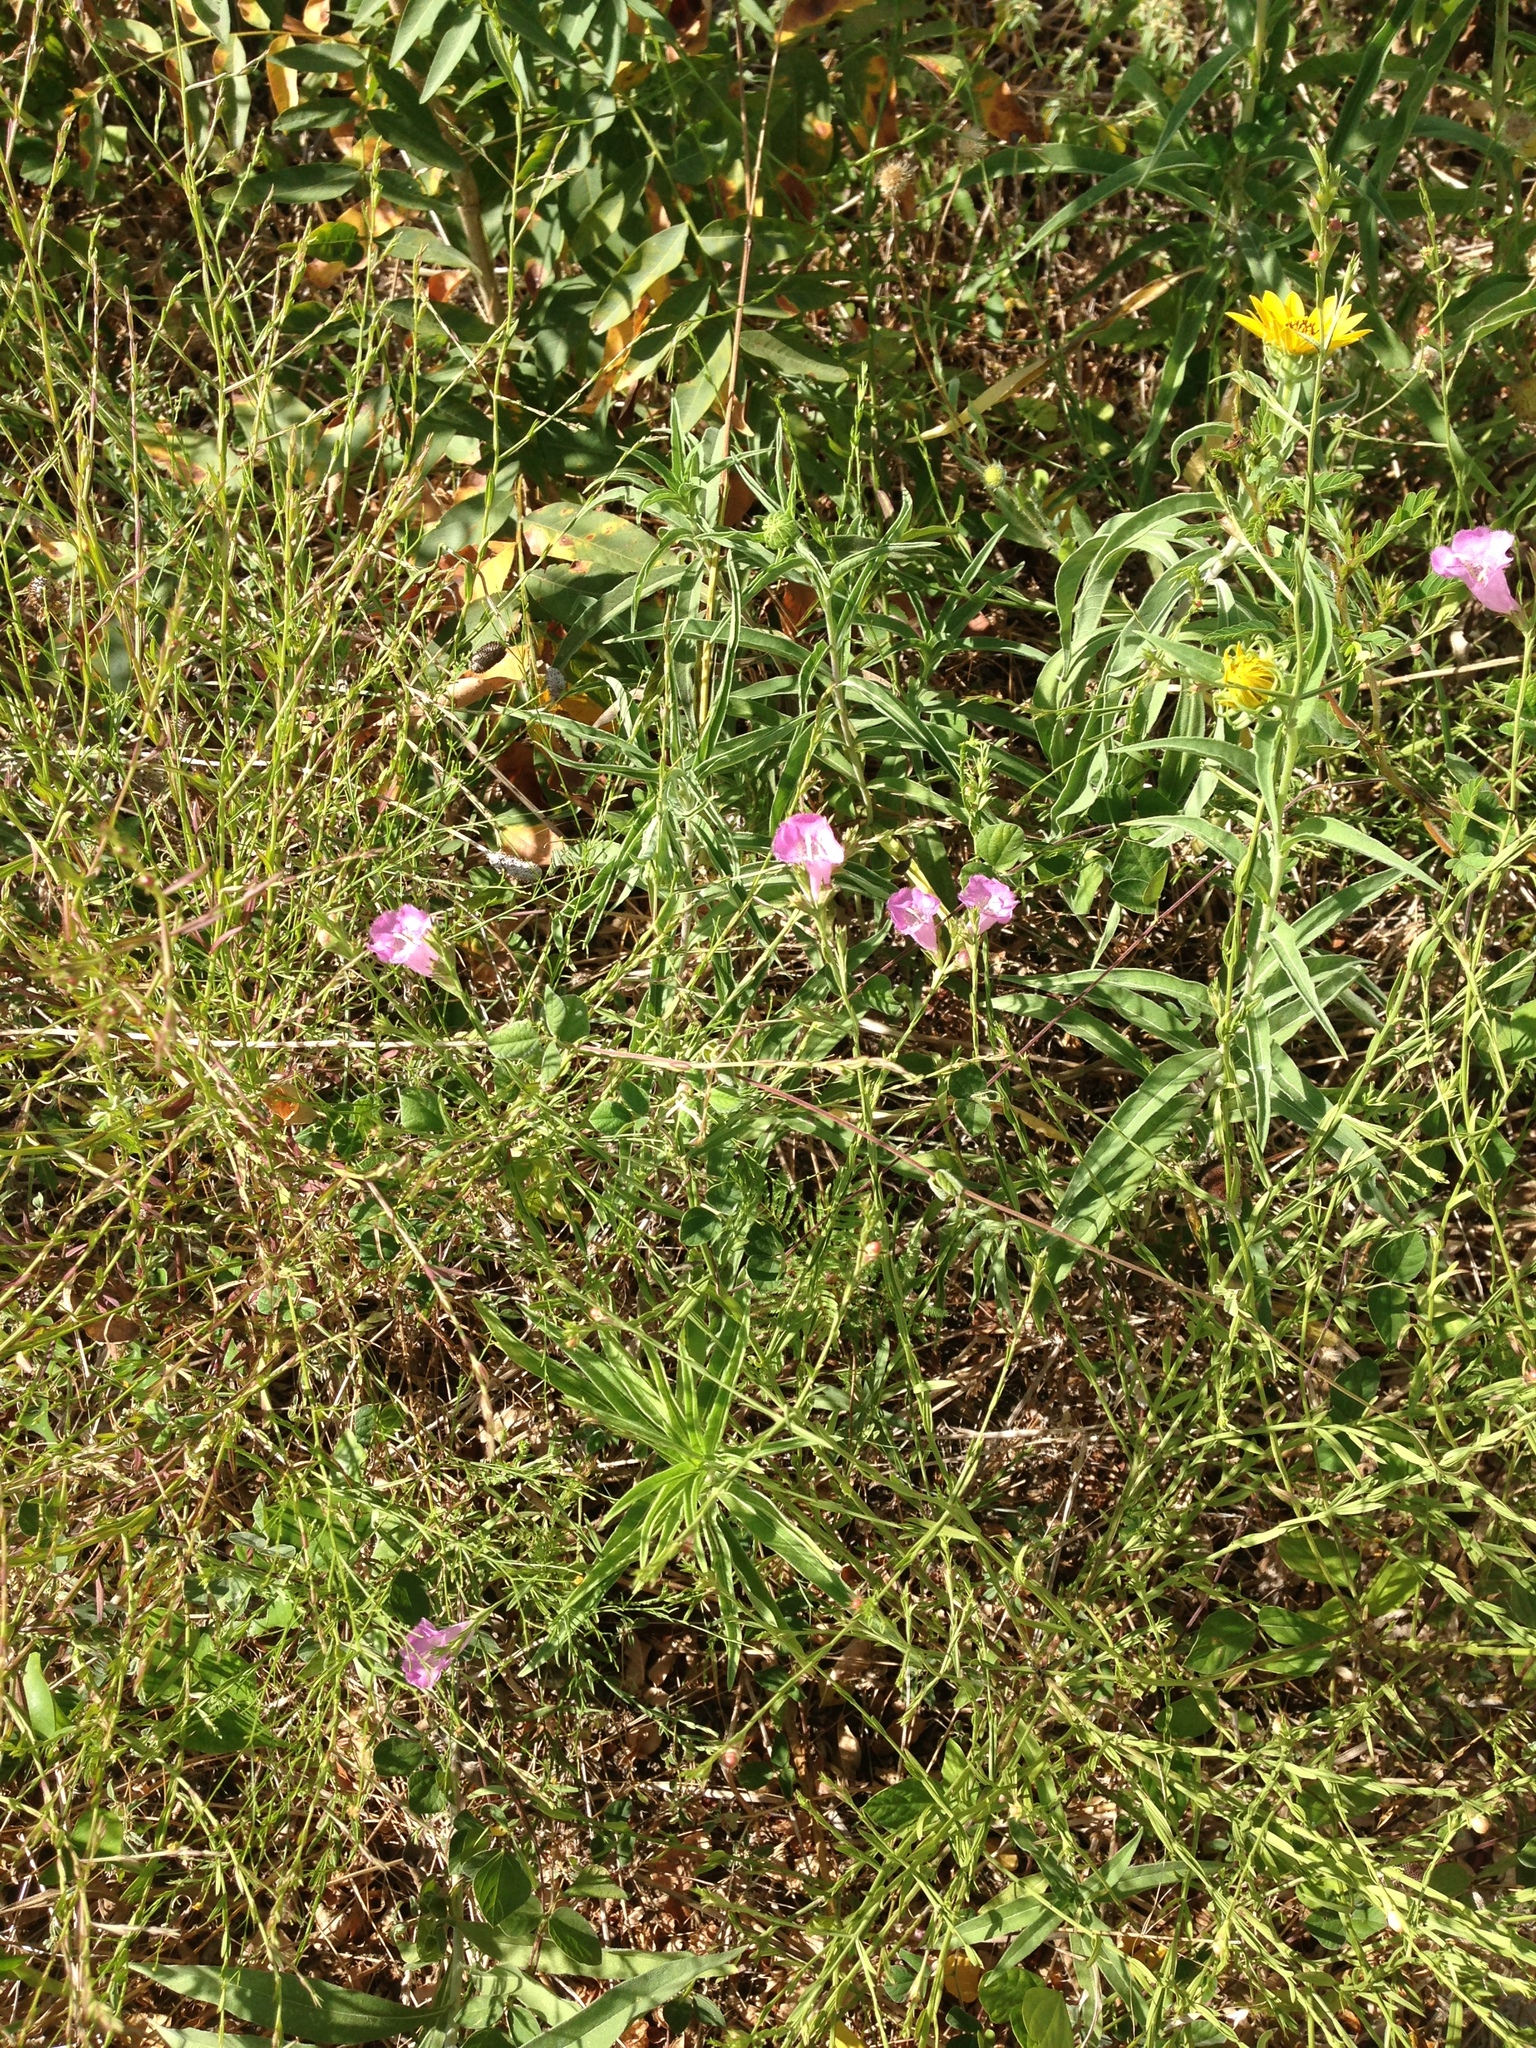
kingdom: Plantae
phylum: Tracheophyta
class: Magnoliopsida
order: Lamiales
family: Orobanchaceae
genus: Agalinis
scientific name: Agalinis heterophylla
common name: Prairie agalinis
